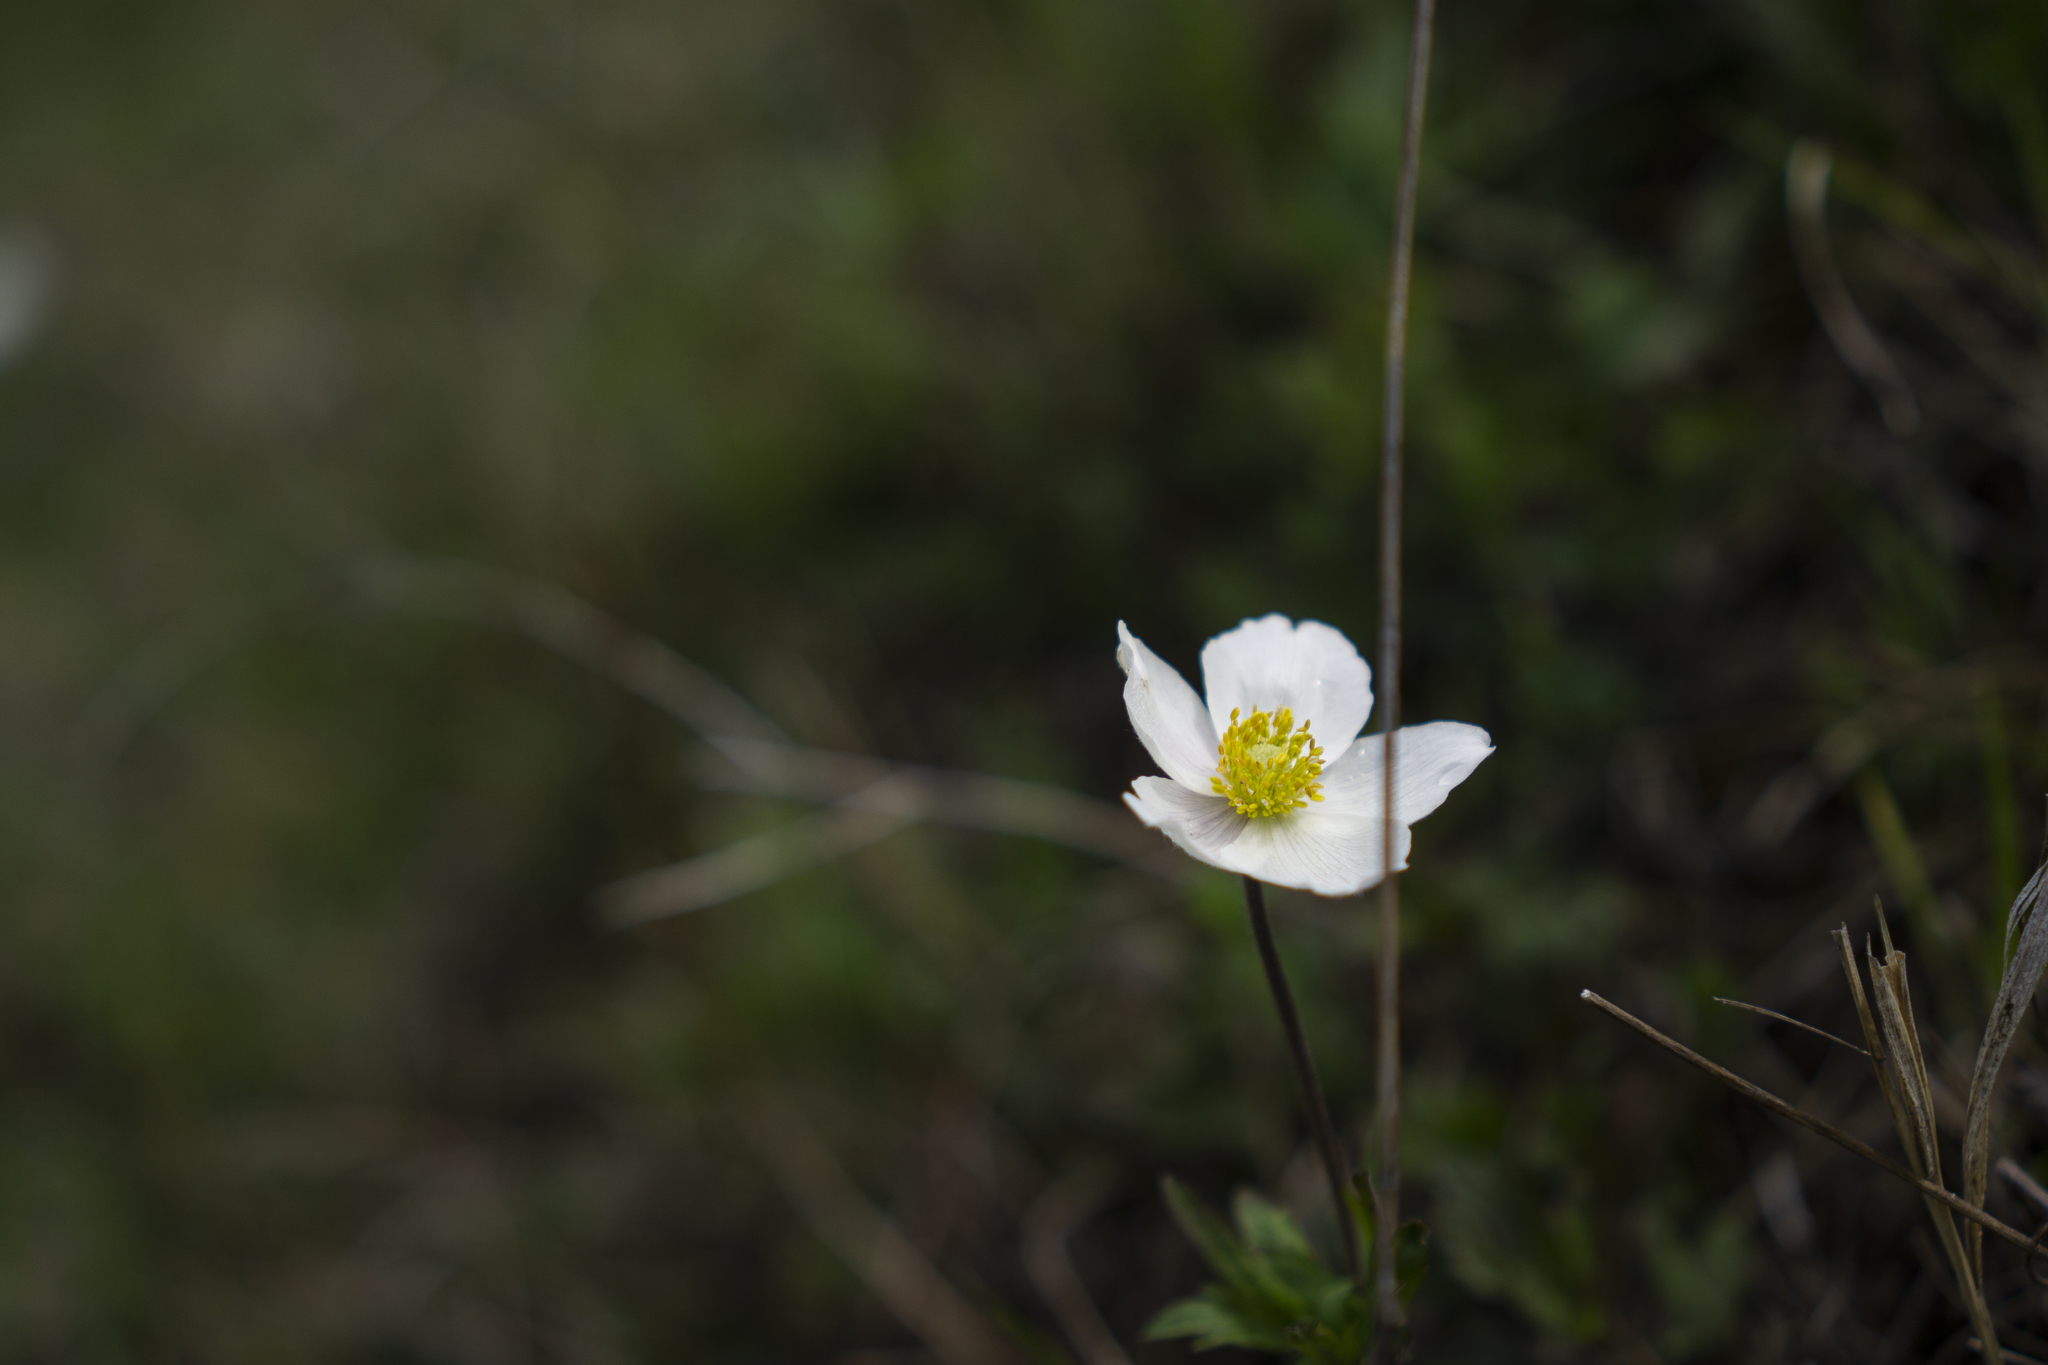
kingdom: Plantae
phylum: Tracheophyta
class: Magnoliopsida
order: Ranunculales
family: Ranunculaceae
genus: Anemone
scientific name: Anemone sylvestris
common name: Snowdrop anemone
